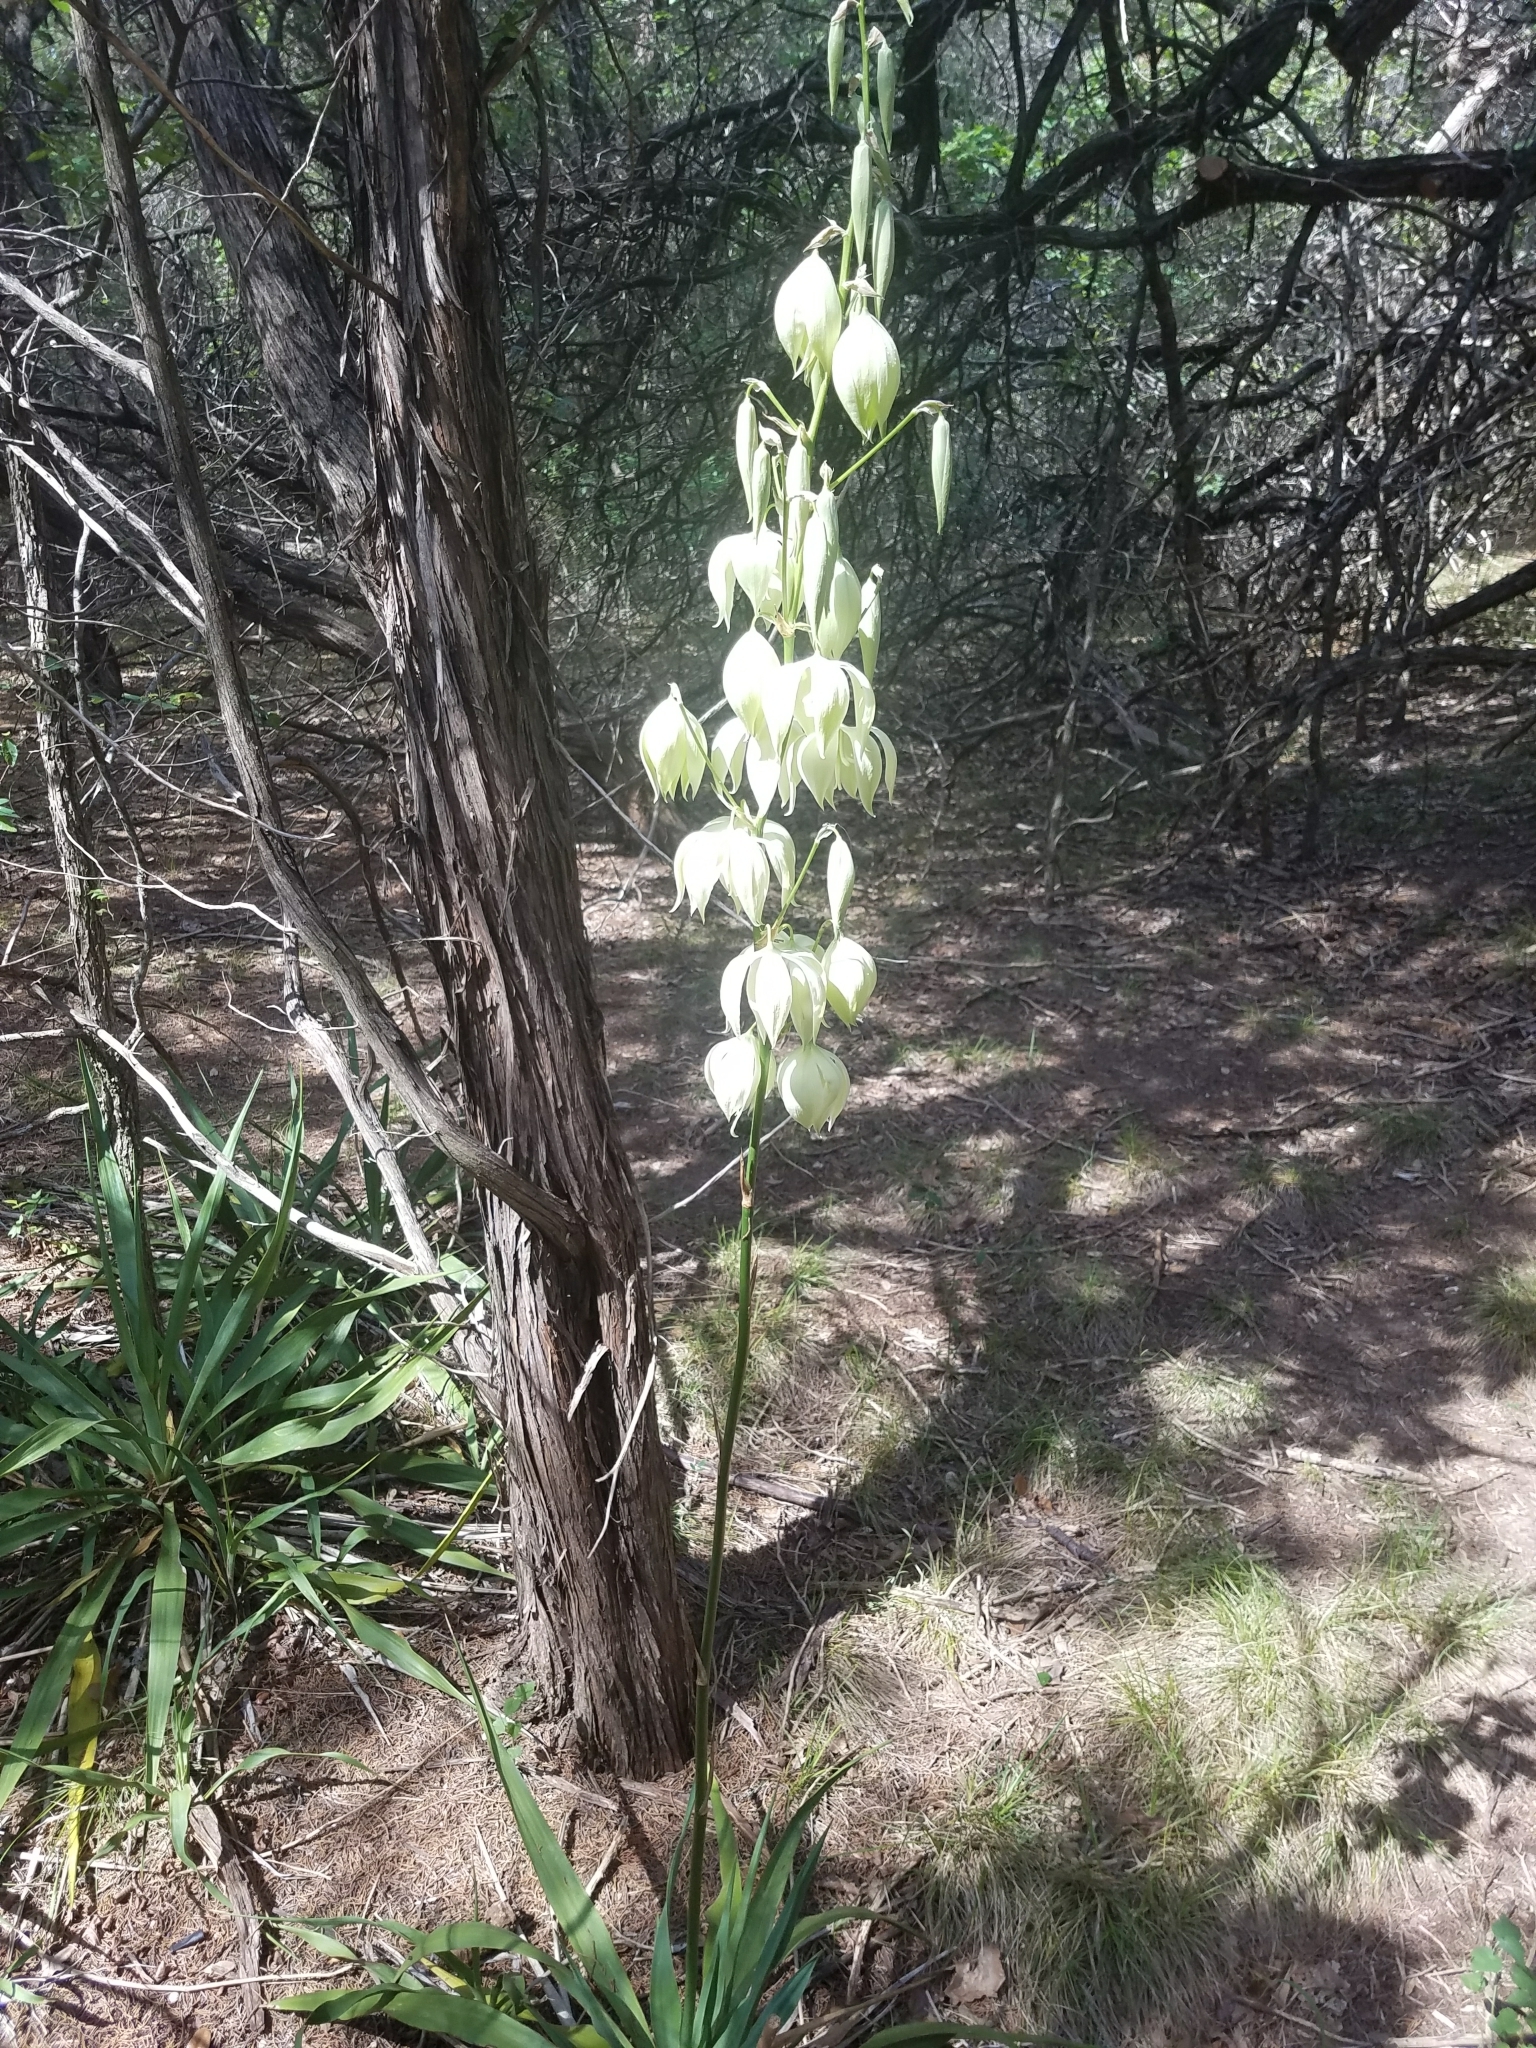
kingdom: Plantae
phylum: Tracheophyta
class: Liliopsida
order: Asparagales
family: Asparagaceae
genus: Yucca
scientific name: Yucca rupicola
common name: Twisted-leaf spanish-dagger
